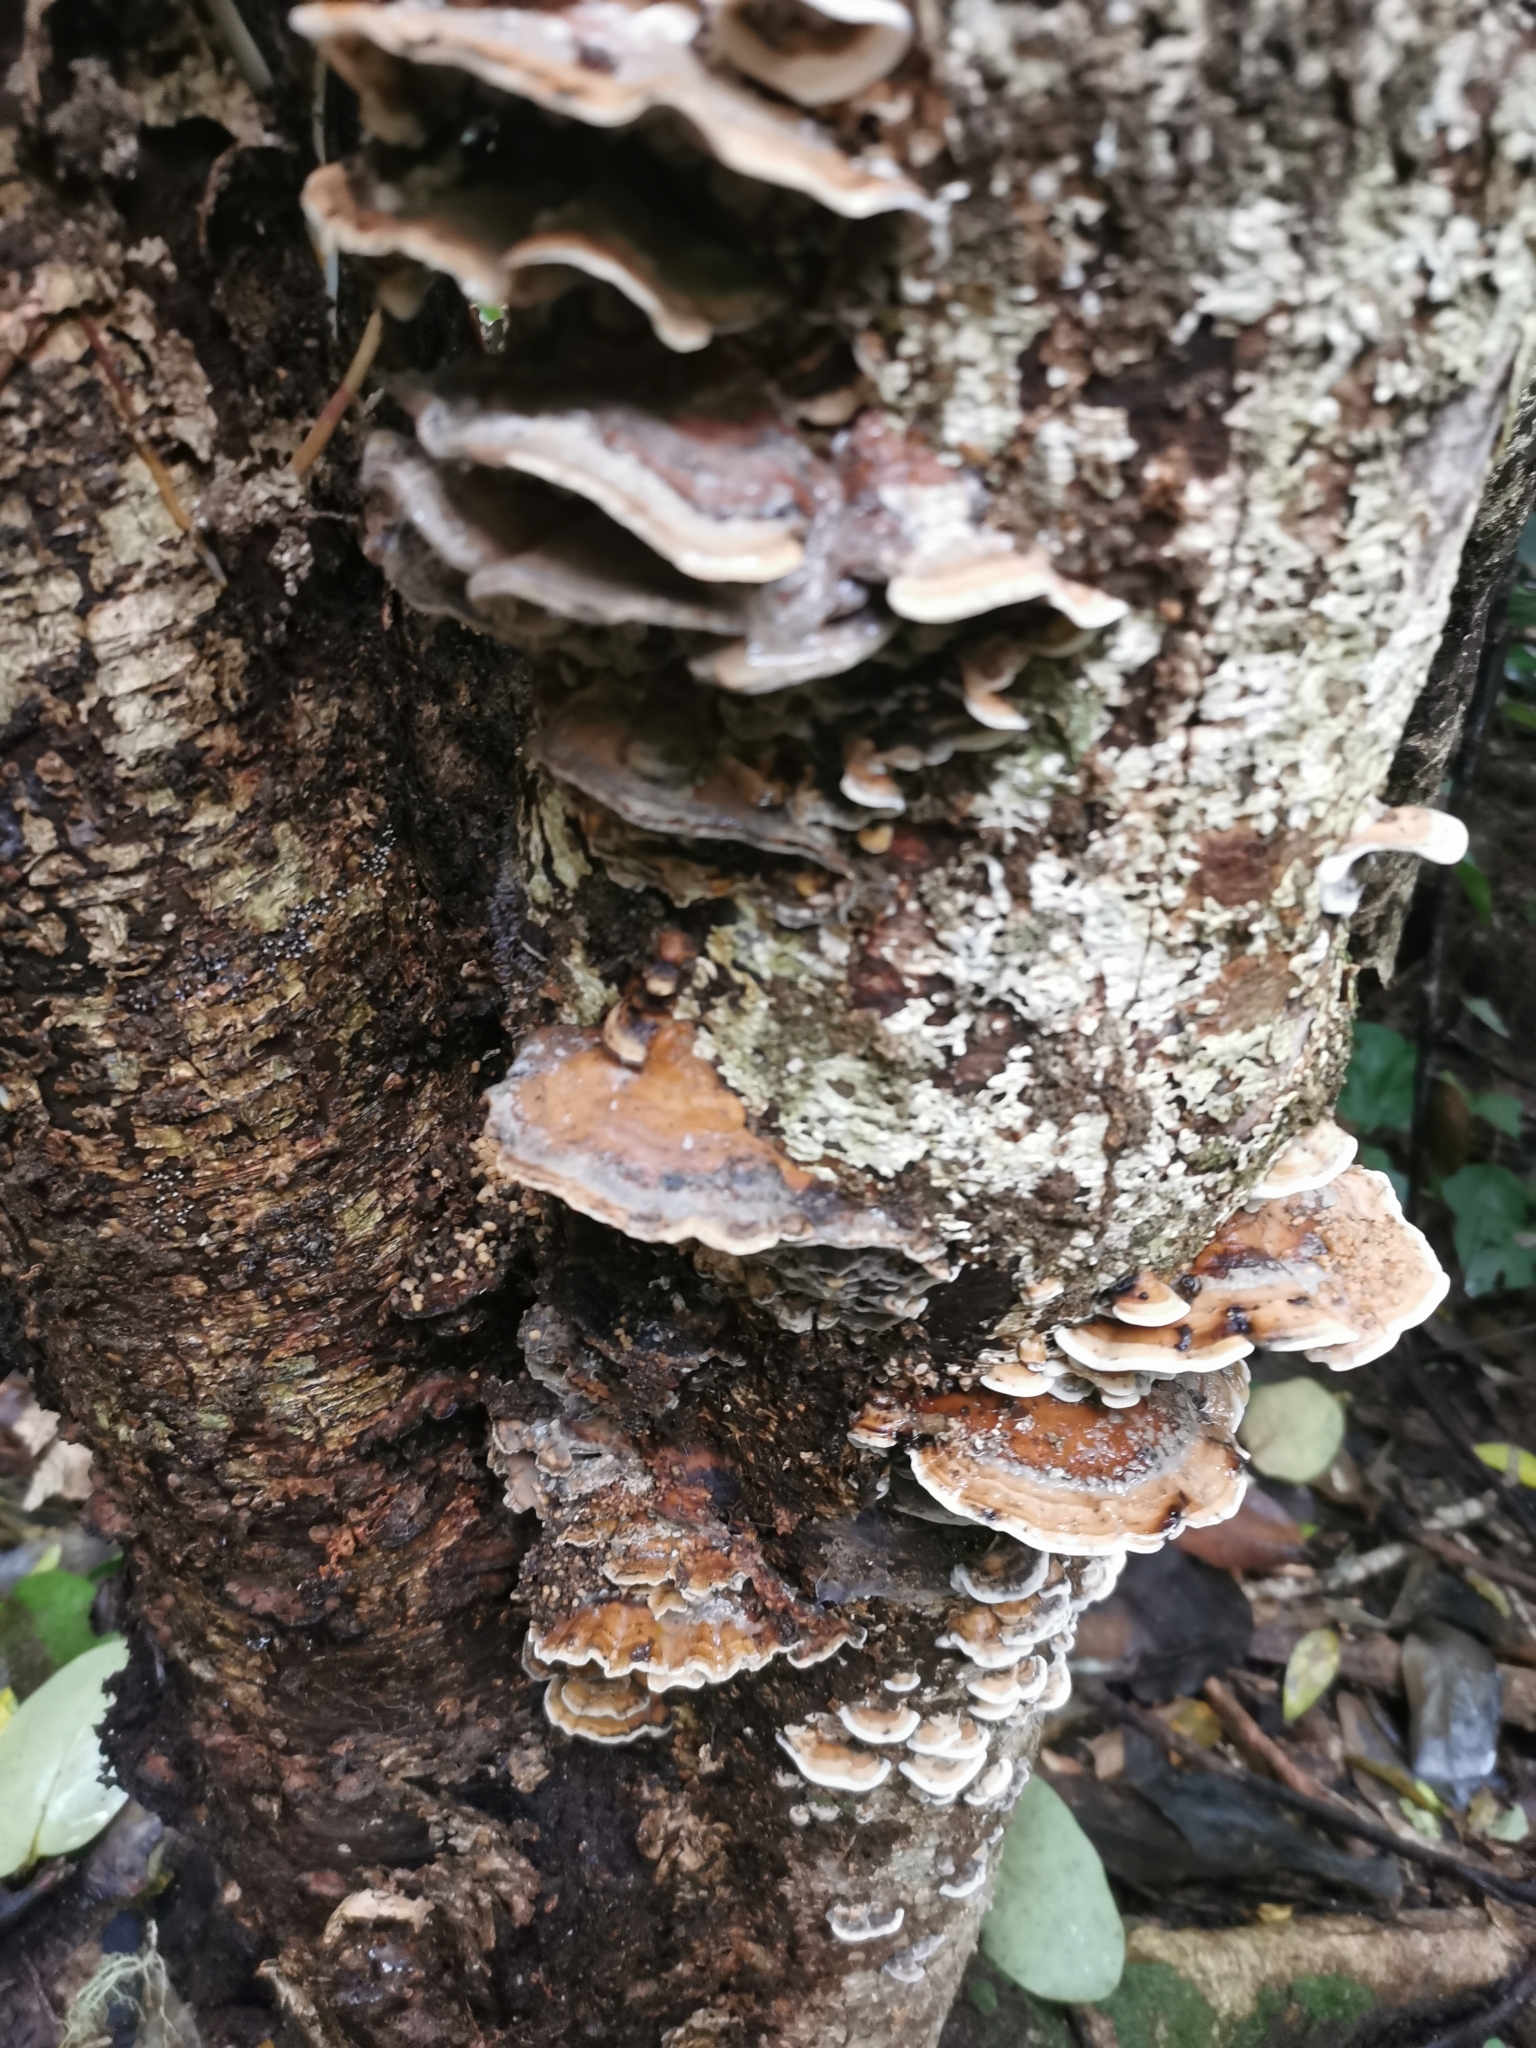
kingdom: Fungi
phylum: Basidiomycota
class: Agaricomycetes
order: Polyporales
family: Phanerochaetaceae
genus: Bjerkandera
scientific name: Bjerkandera adusta
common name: Smoky bracket
